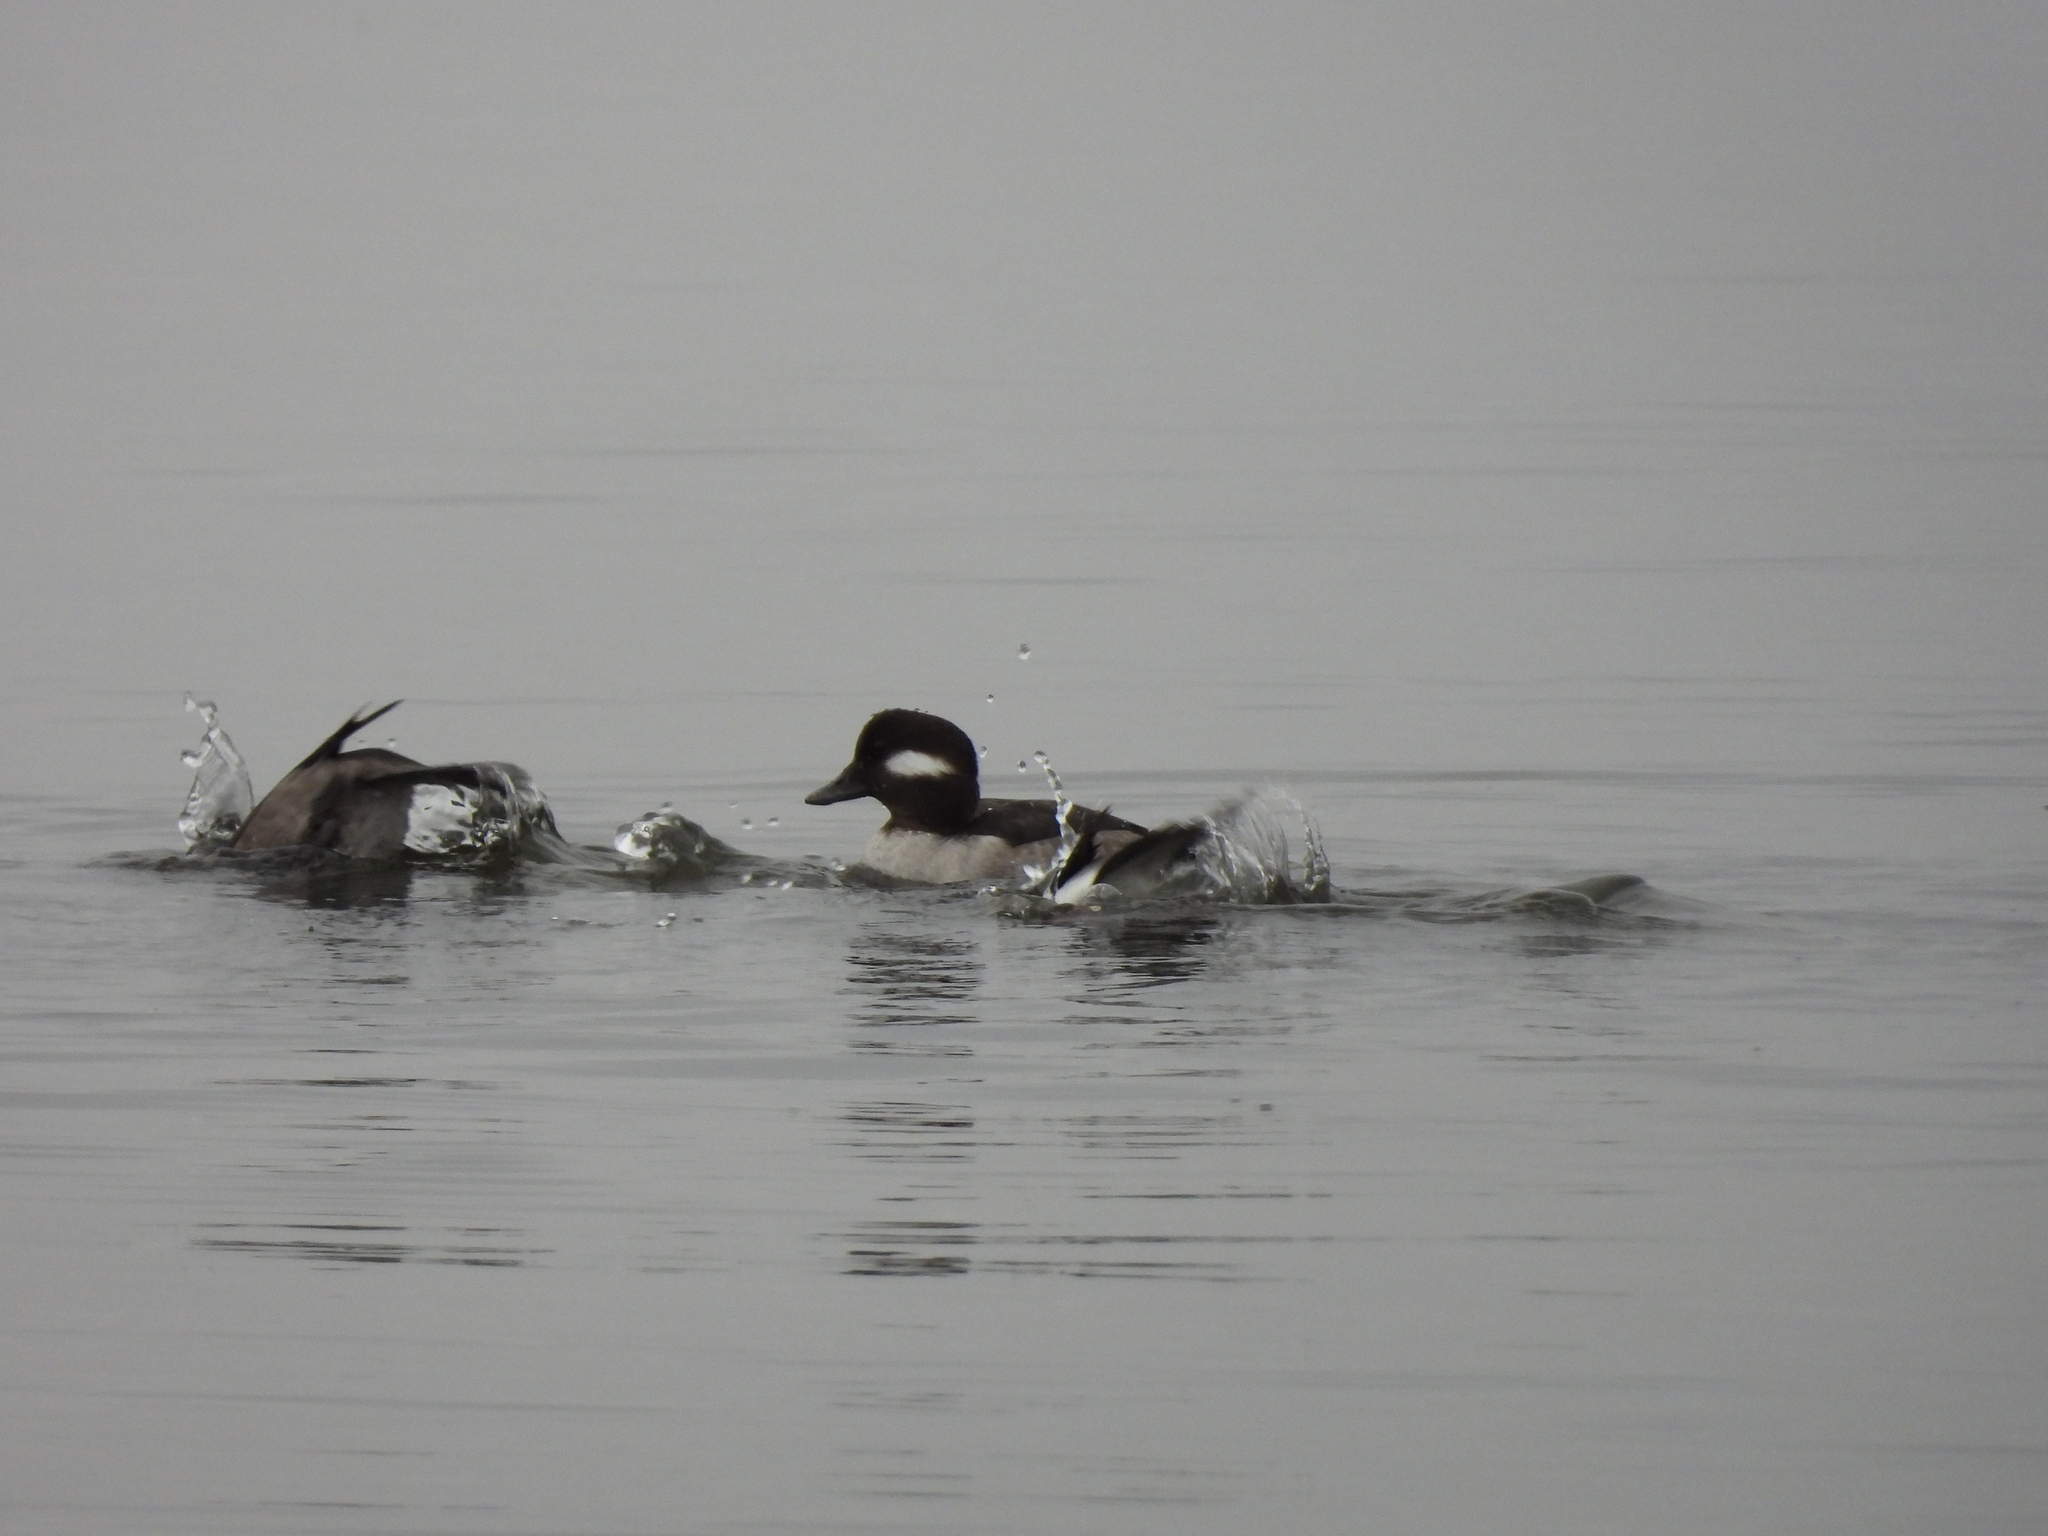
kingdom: Animalia
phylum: Chordata
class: Aves
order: Anseriformes
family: Anatidae
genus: Bucephala
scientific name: Bucephala albeola
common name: Bufflehead
